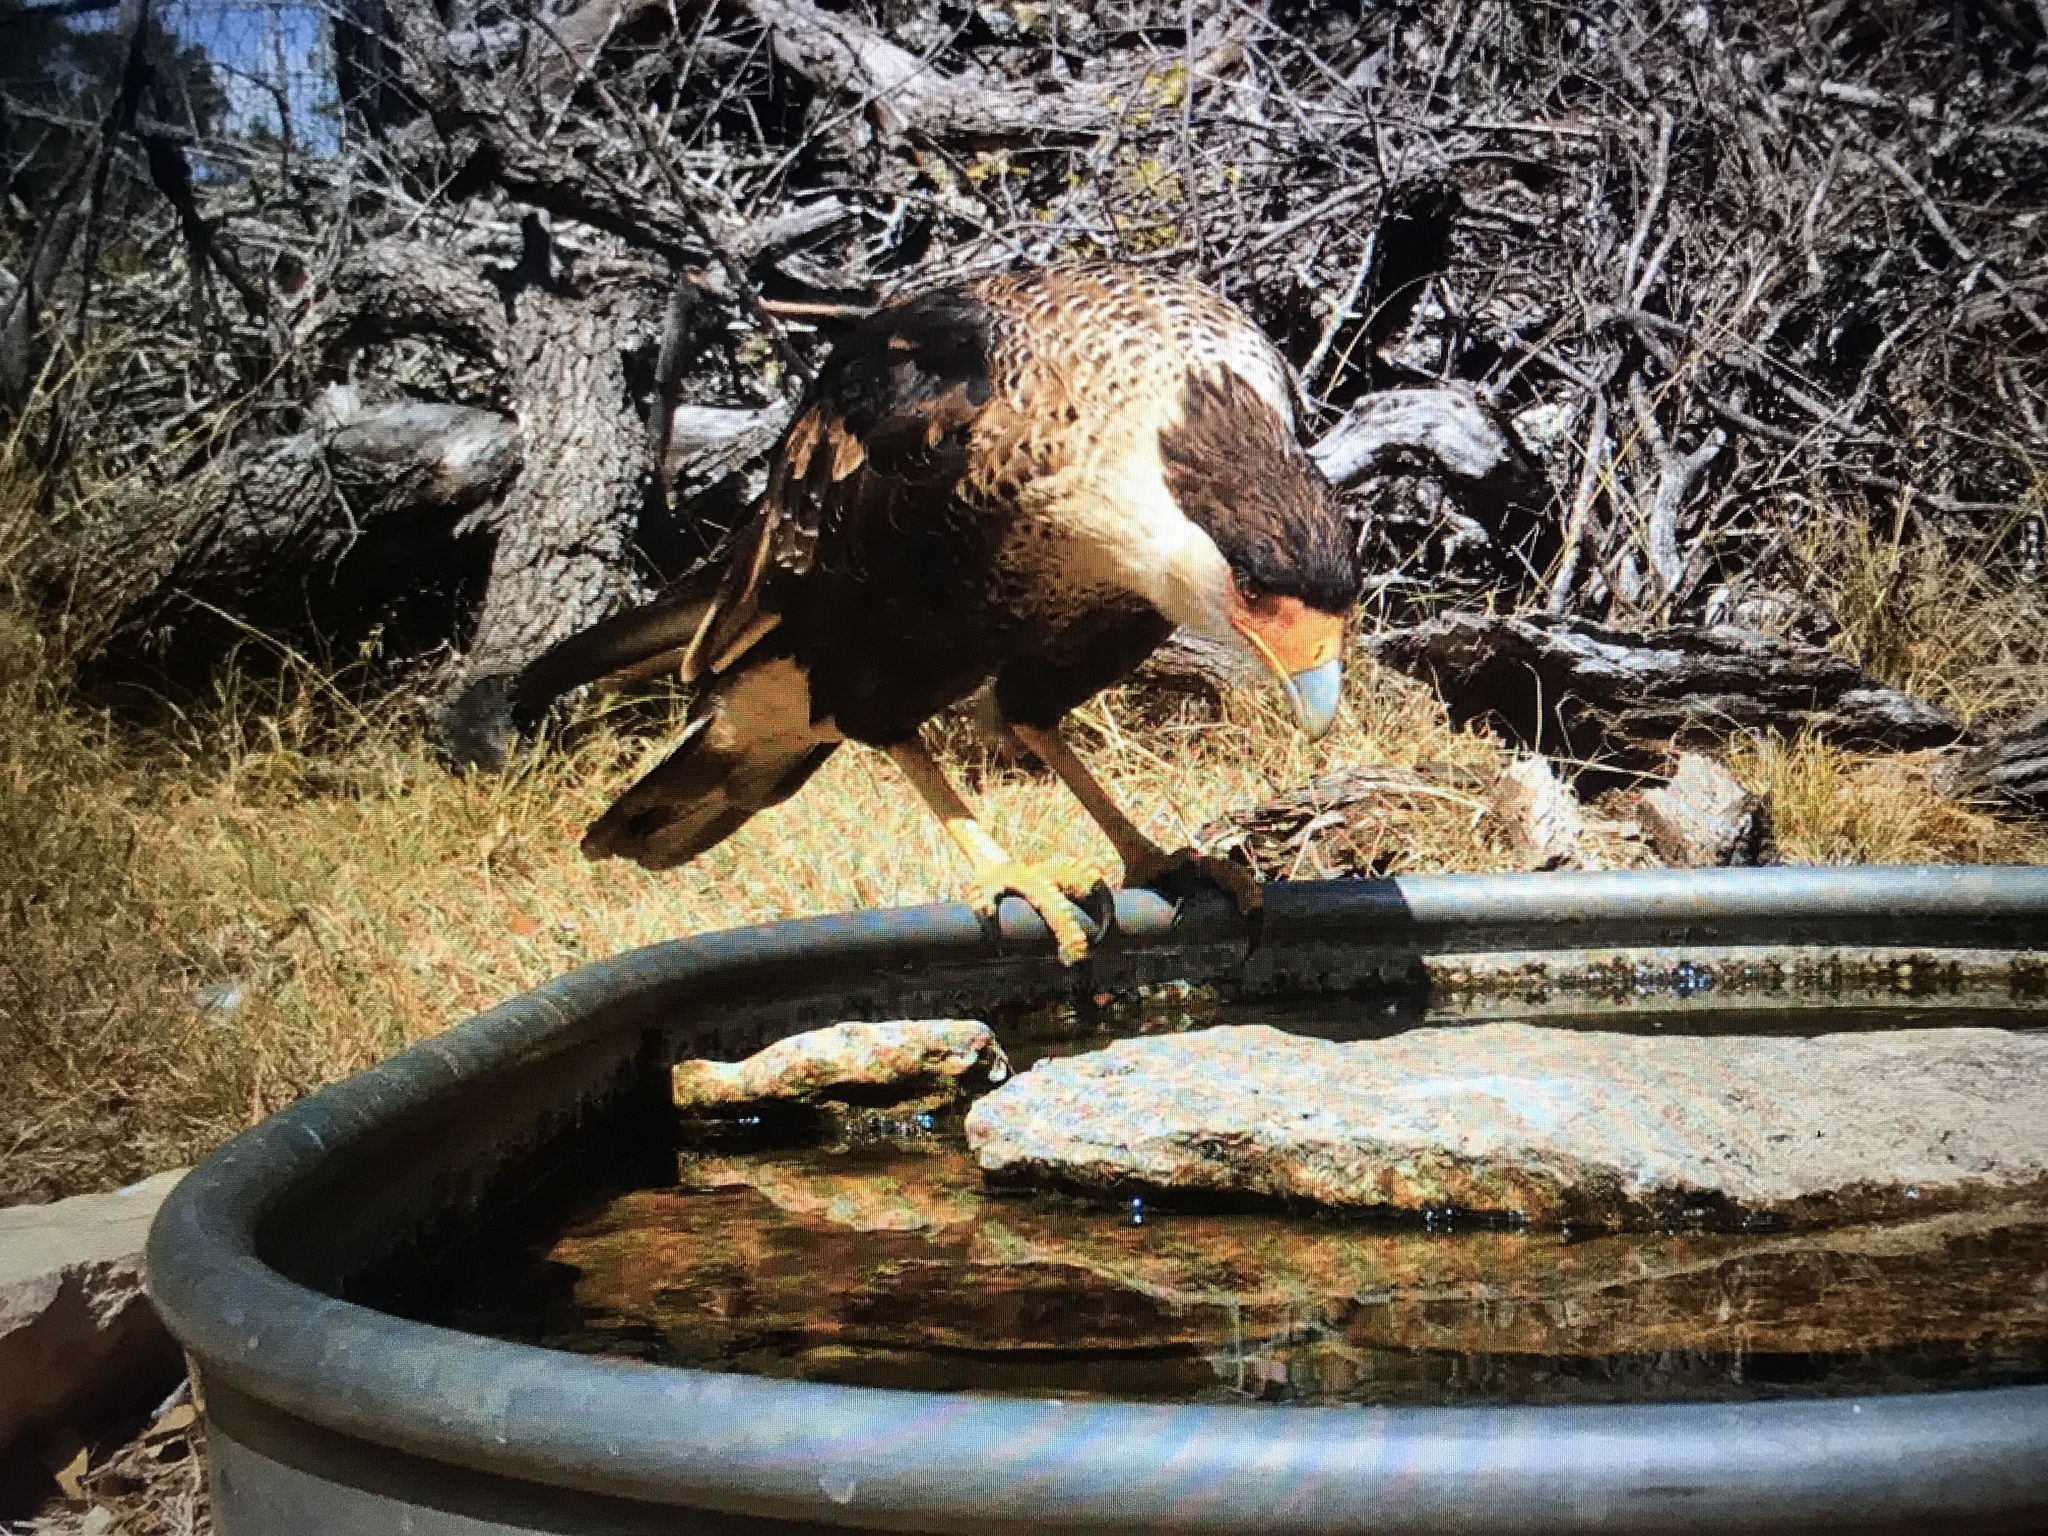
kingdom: Animalia
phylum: Chordata
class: Aves
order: Falconiformes
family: Falconidae
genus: Caracara
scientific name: Caracara plancus
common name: Southern caracara
